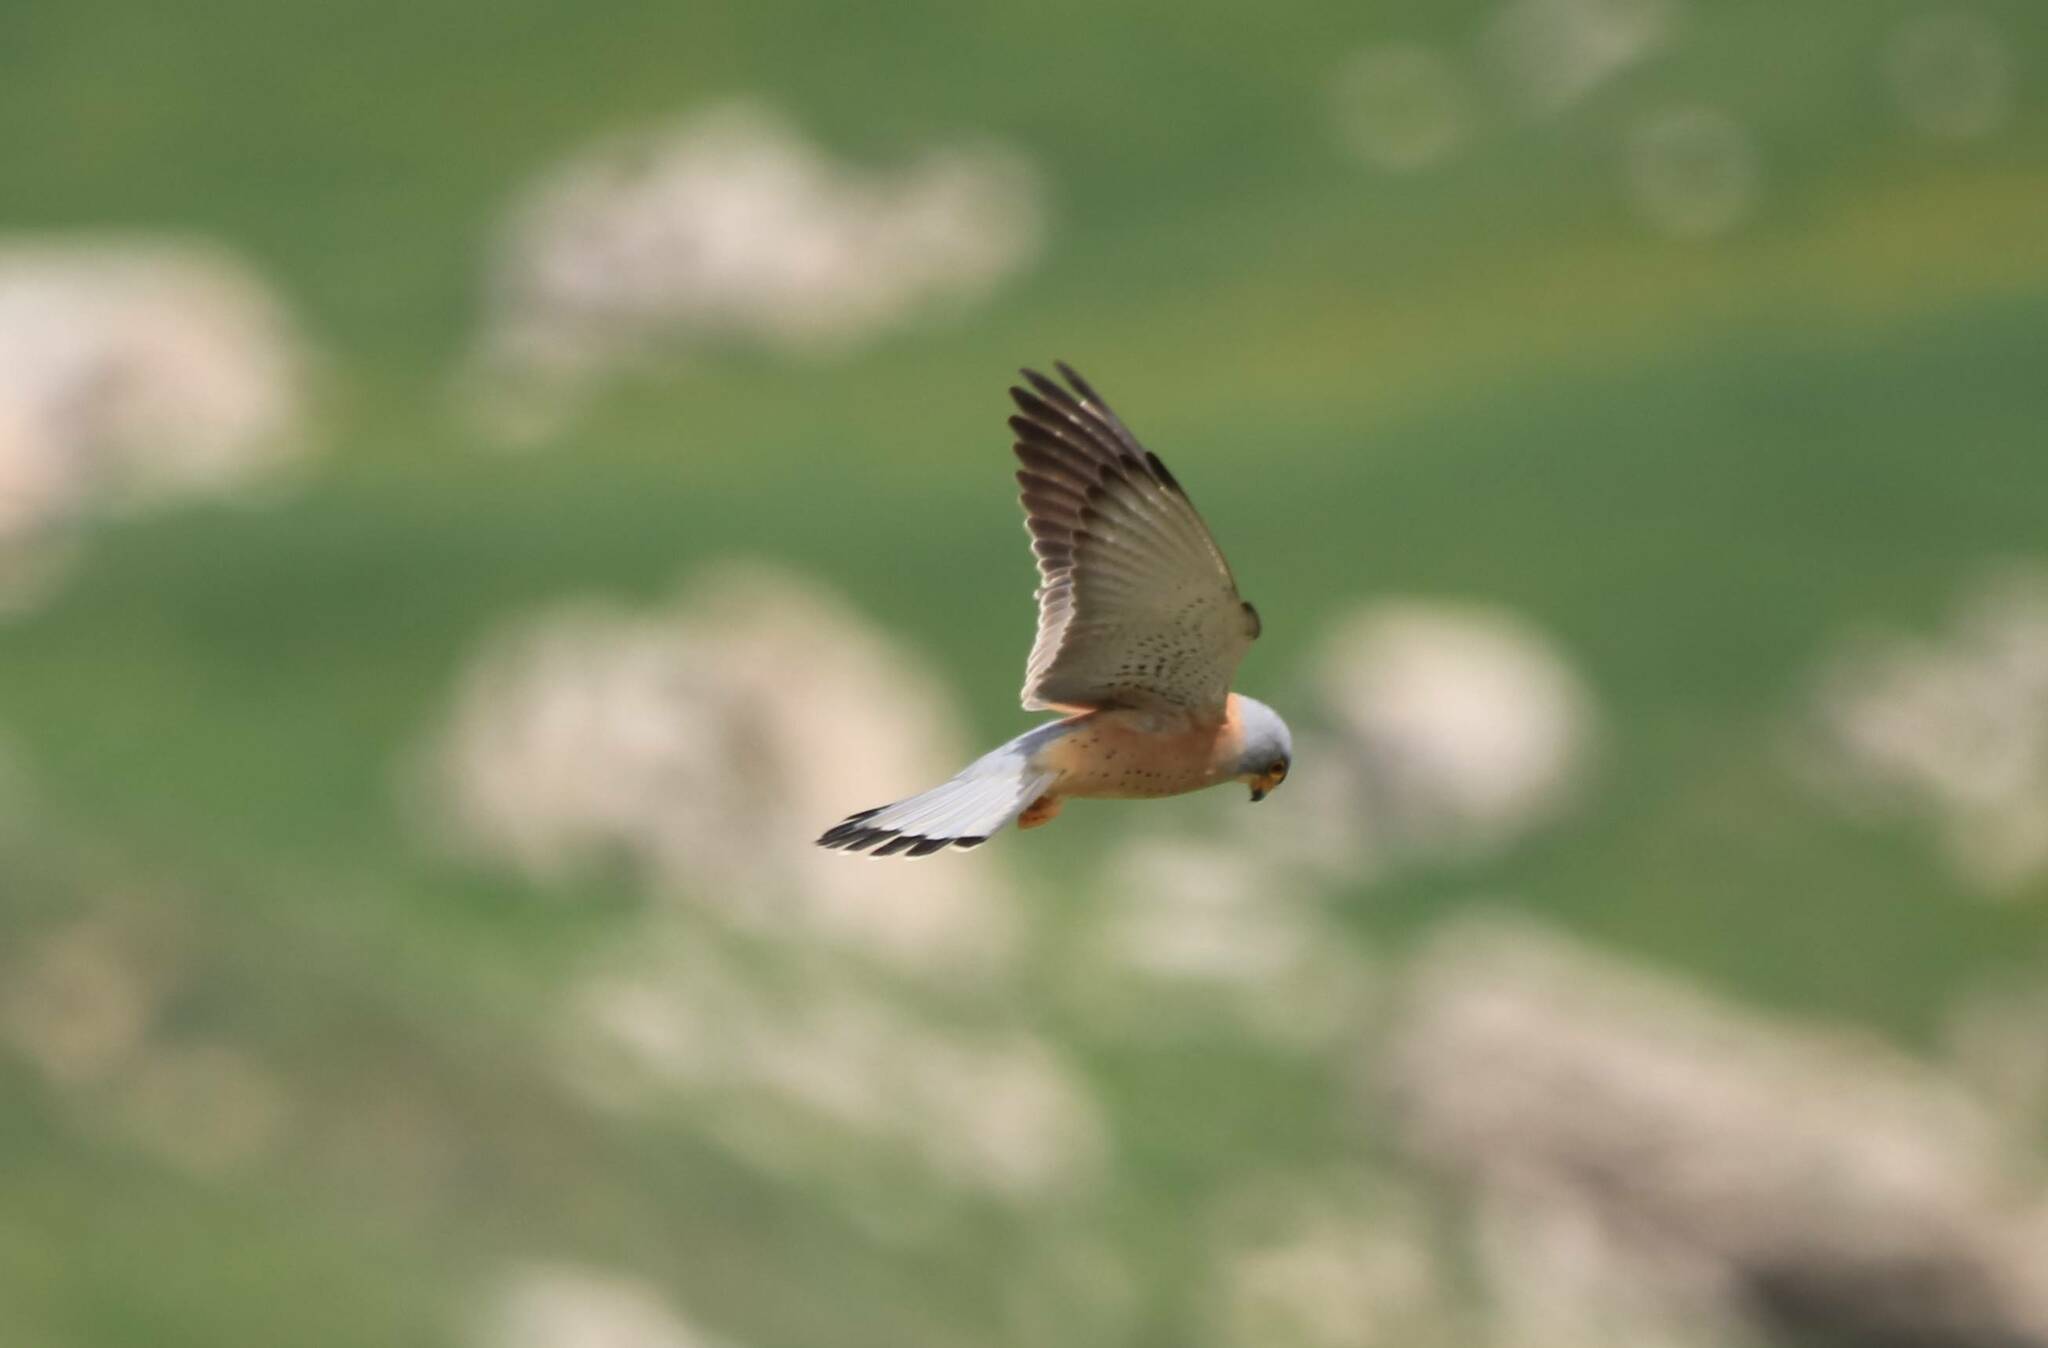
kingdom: Animalia
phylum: Chordata
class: Aves
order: Falconiformes
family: Falconidae
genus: Falco
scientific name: Falco naumanni
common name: Lesser kestrel
